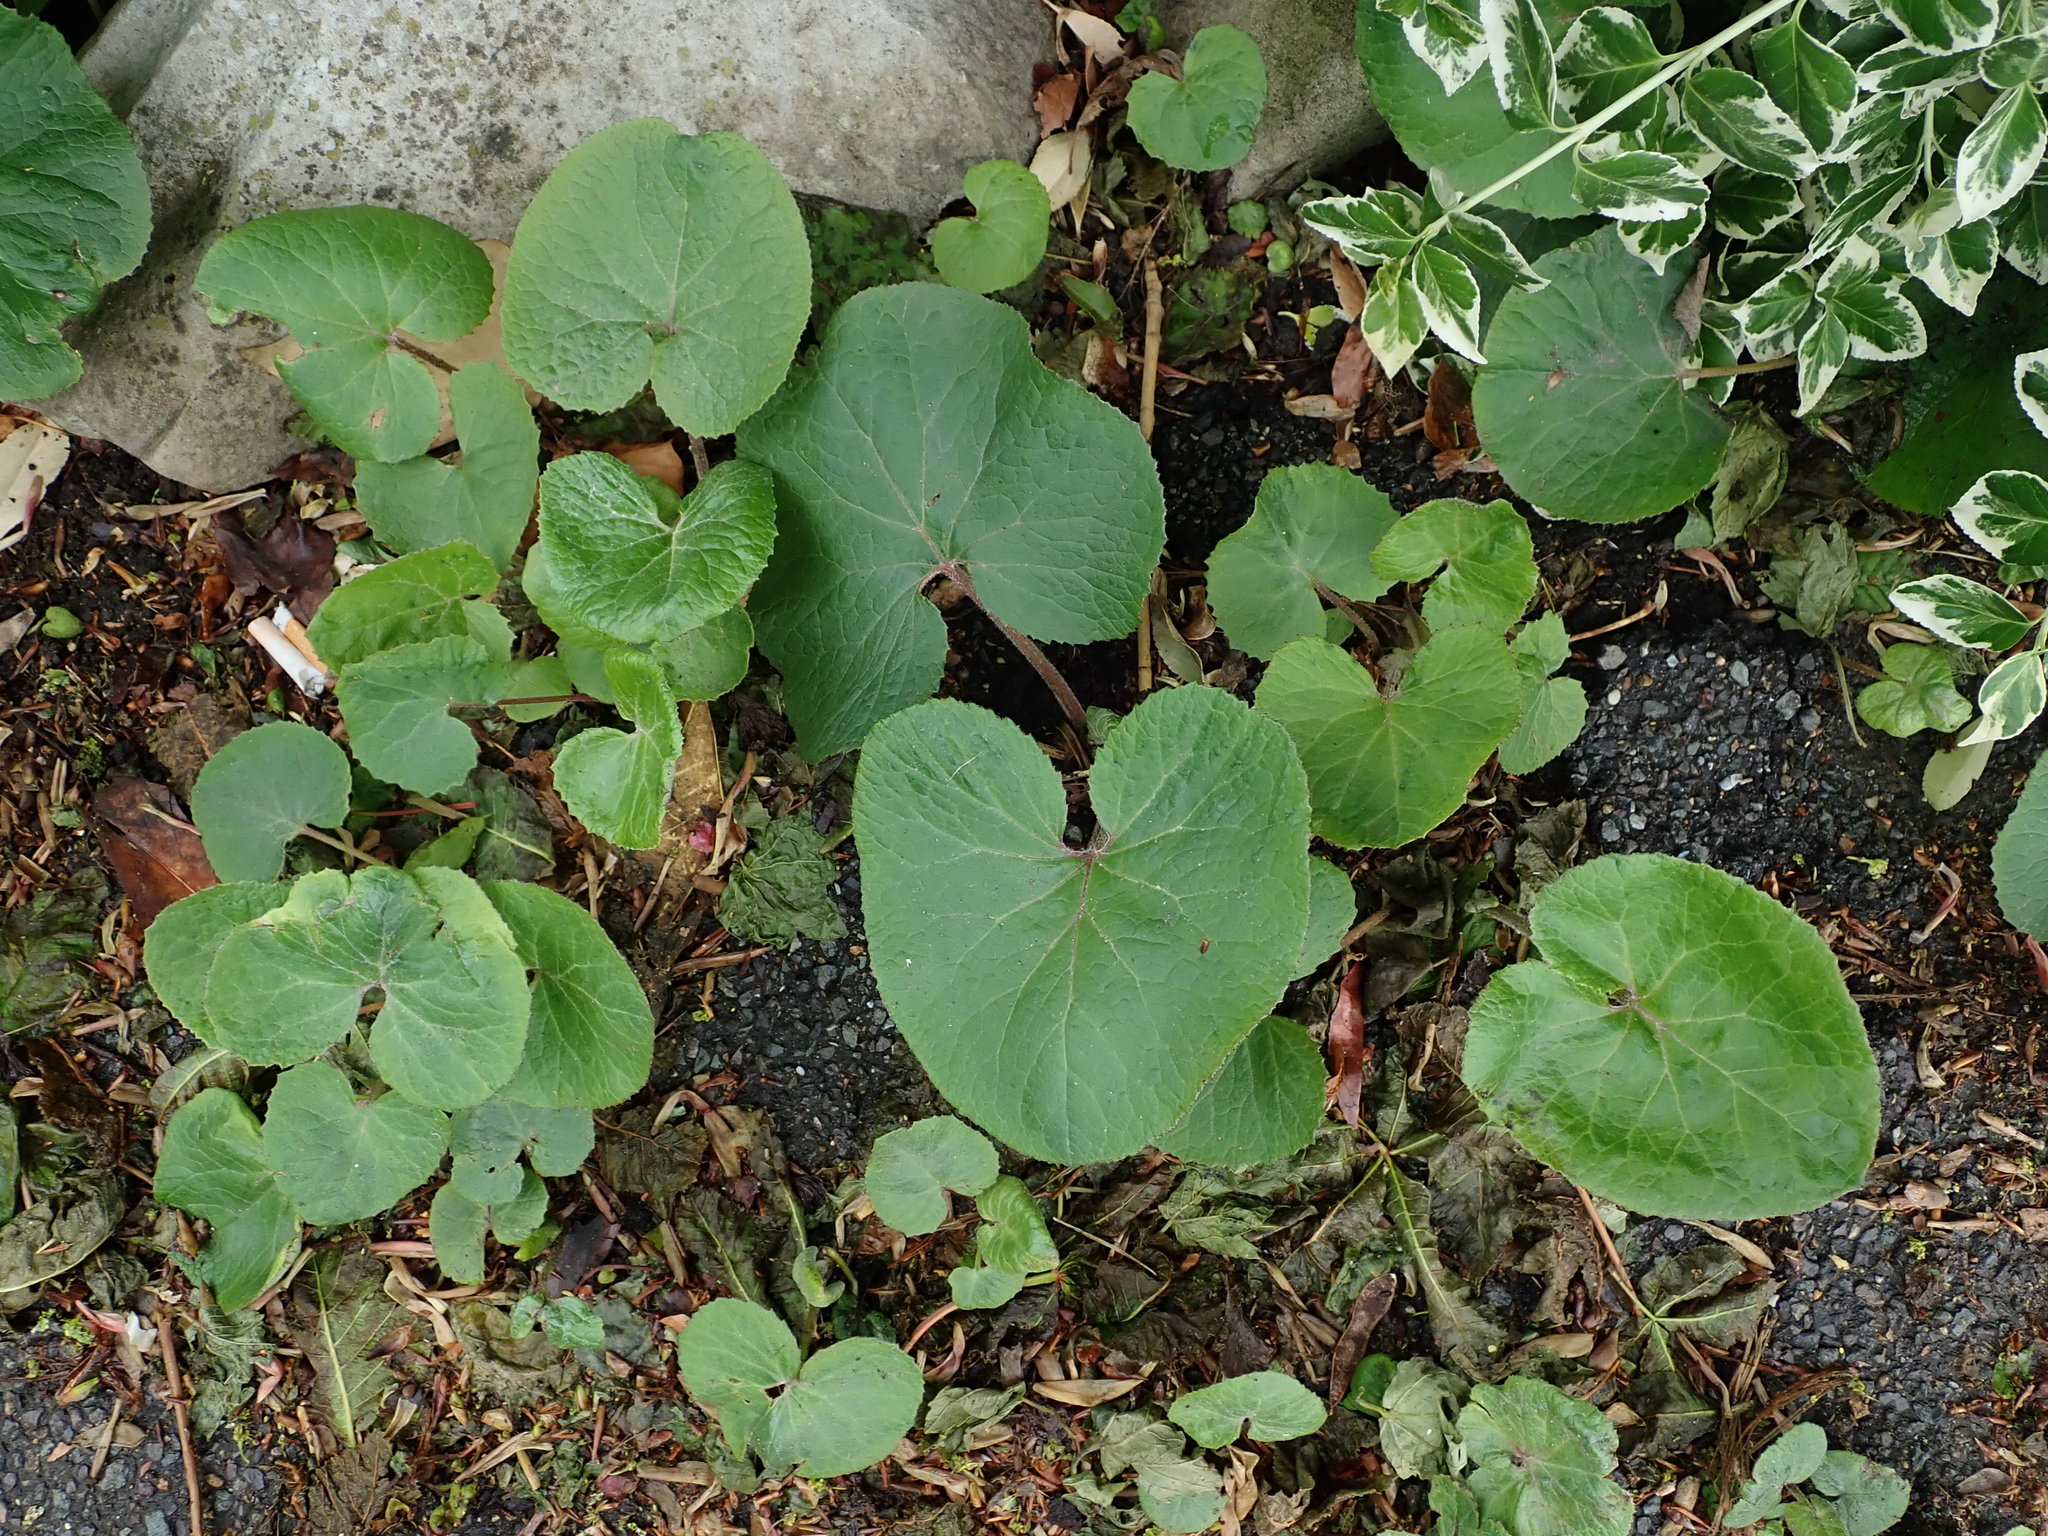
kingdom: Plantae
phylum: Tracheophyta
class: Magnoliopsida
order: Asterales
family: Asteraceae
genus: Petasites
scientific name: Petasites pyrenaicus
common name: Winter heliotrope
